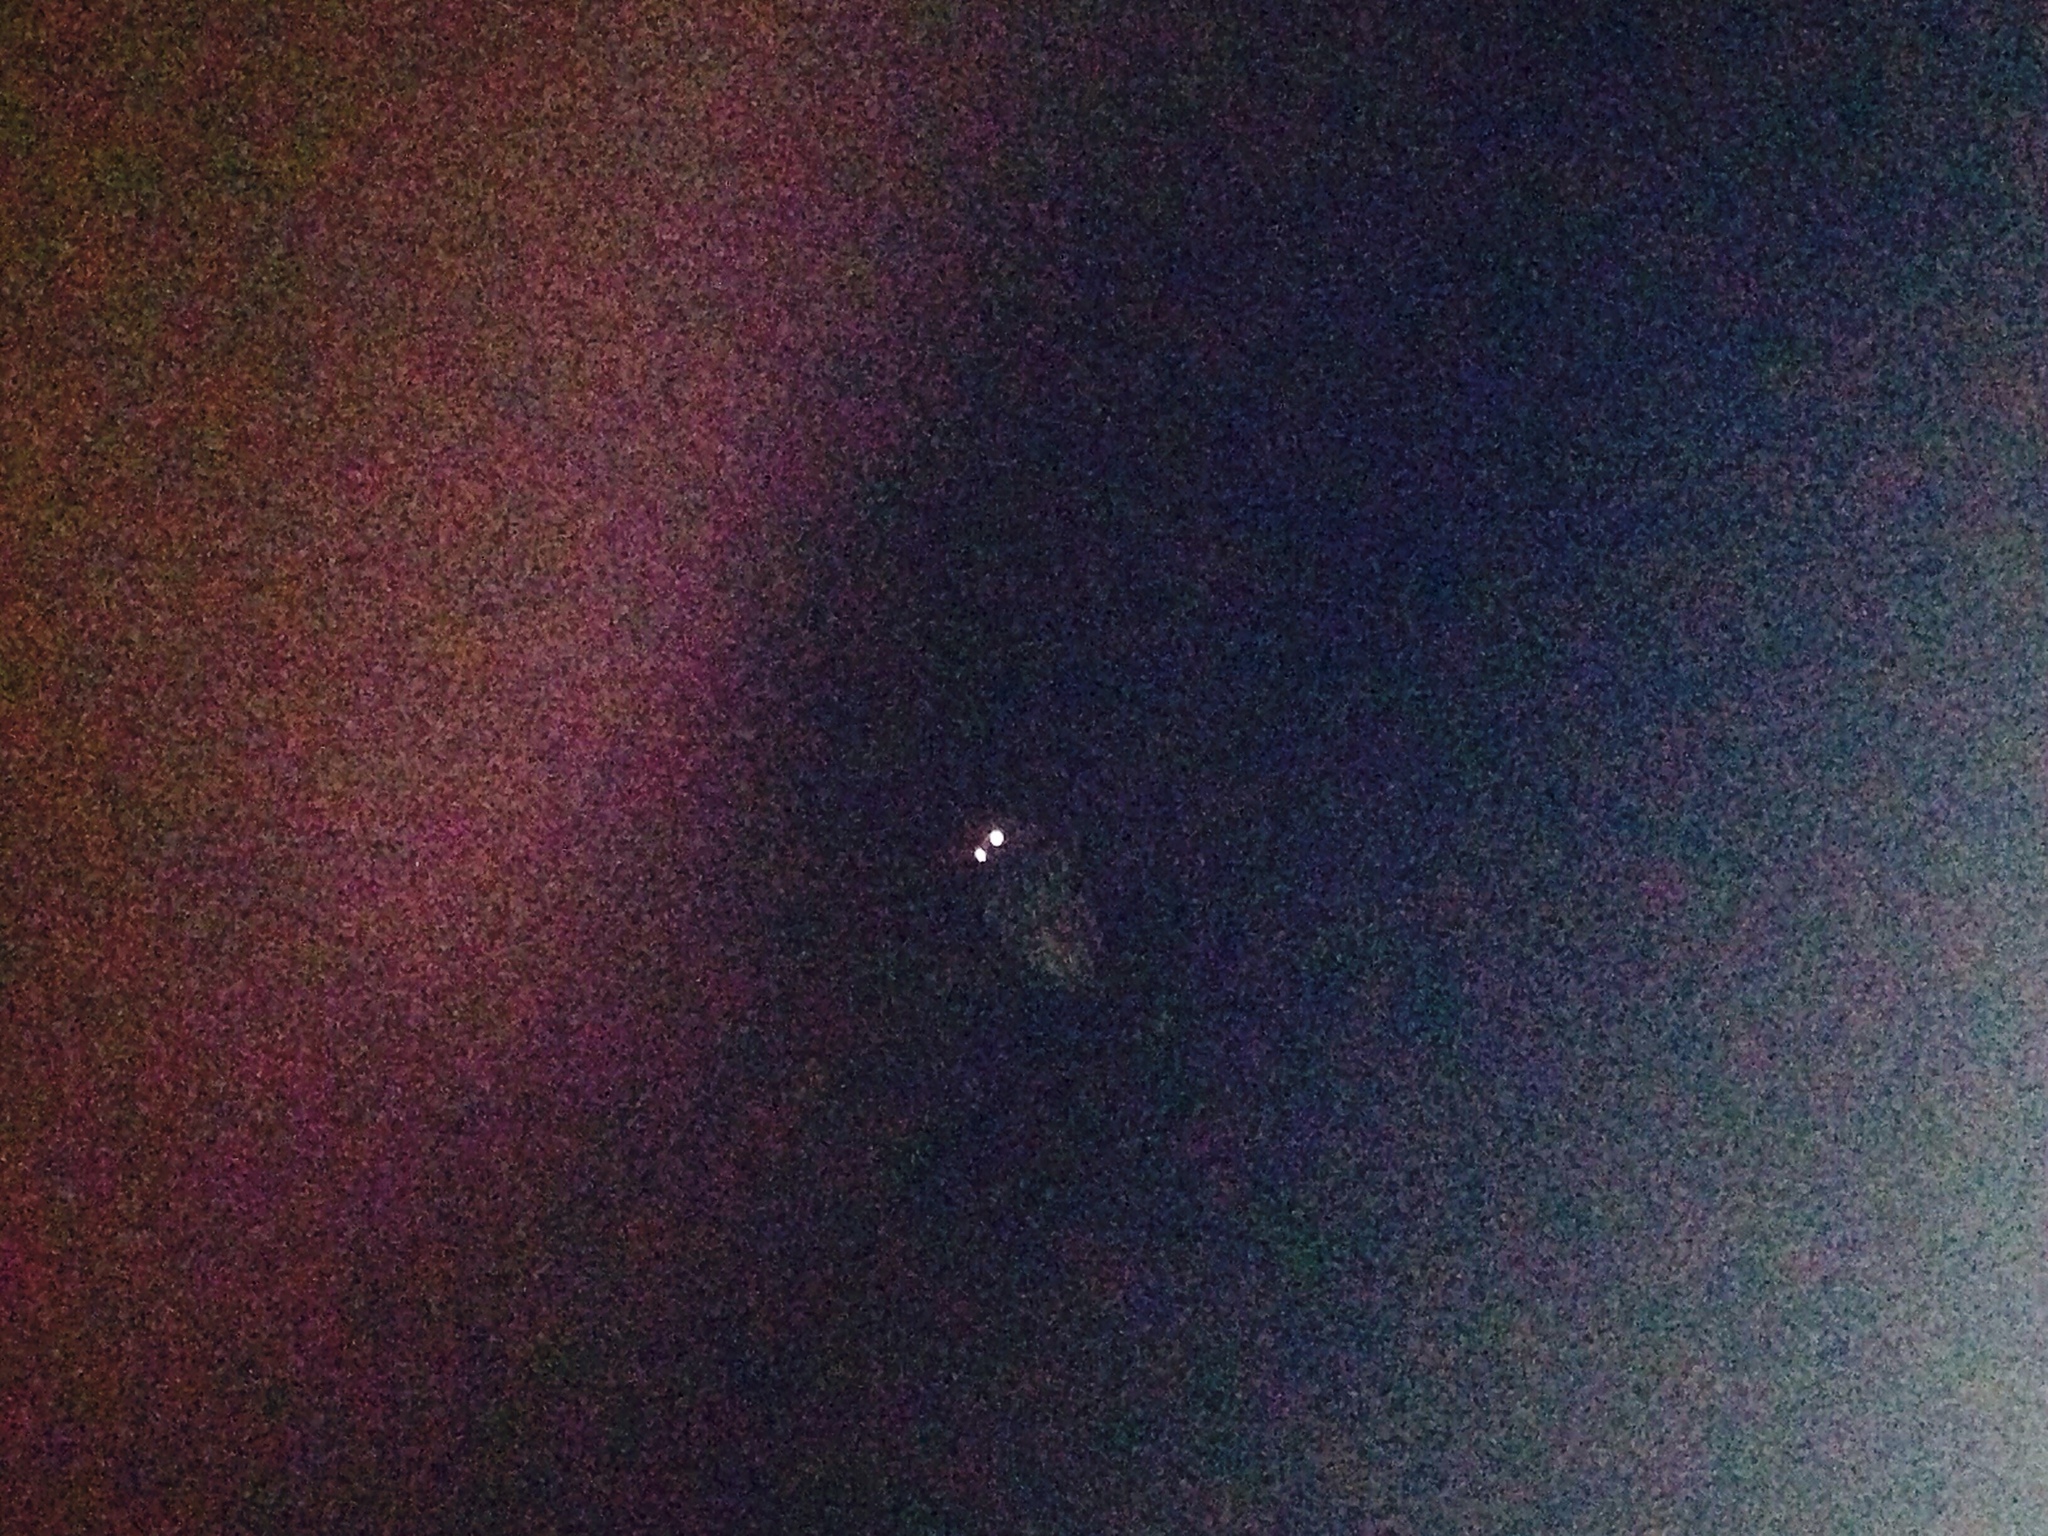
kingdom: Animalia
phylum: Chordata
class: Aves
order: Strigiformes
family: Strigidae
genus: Ninox
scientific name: Ninox novaeseelandiae
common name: Morepork
